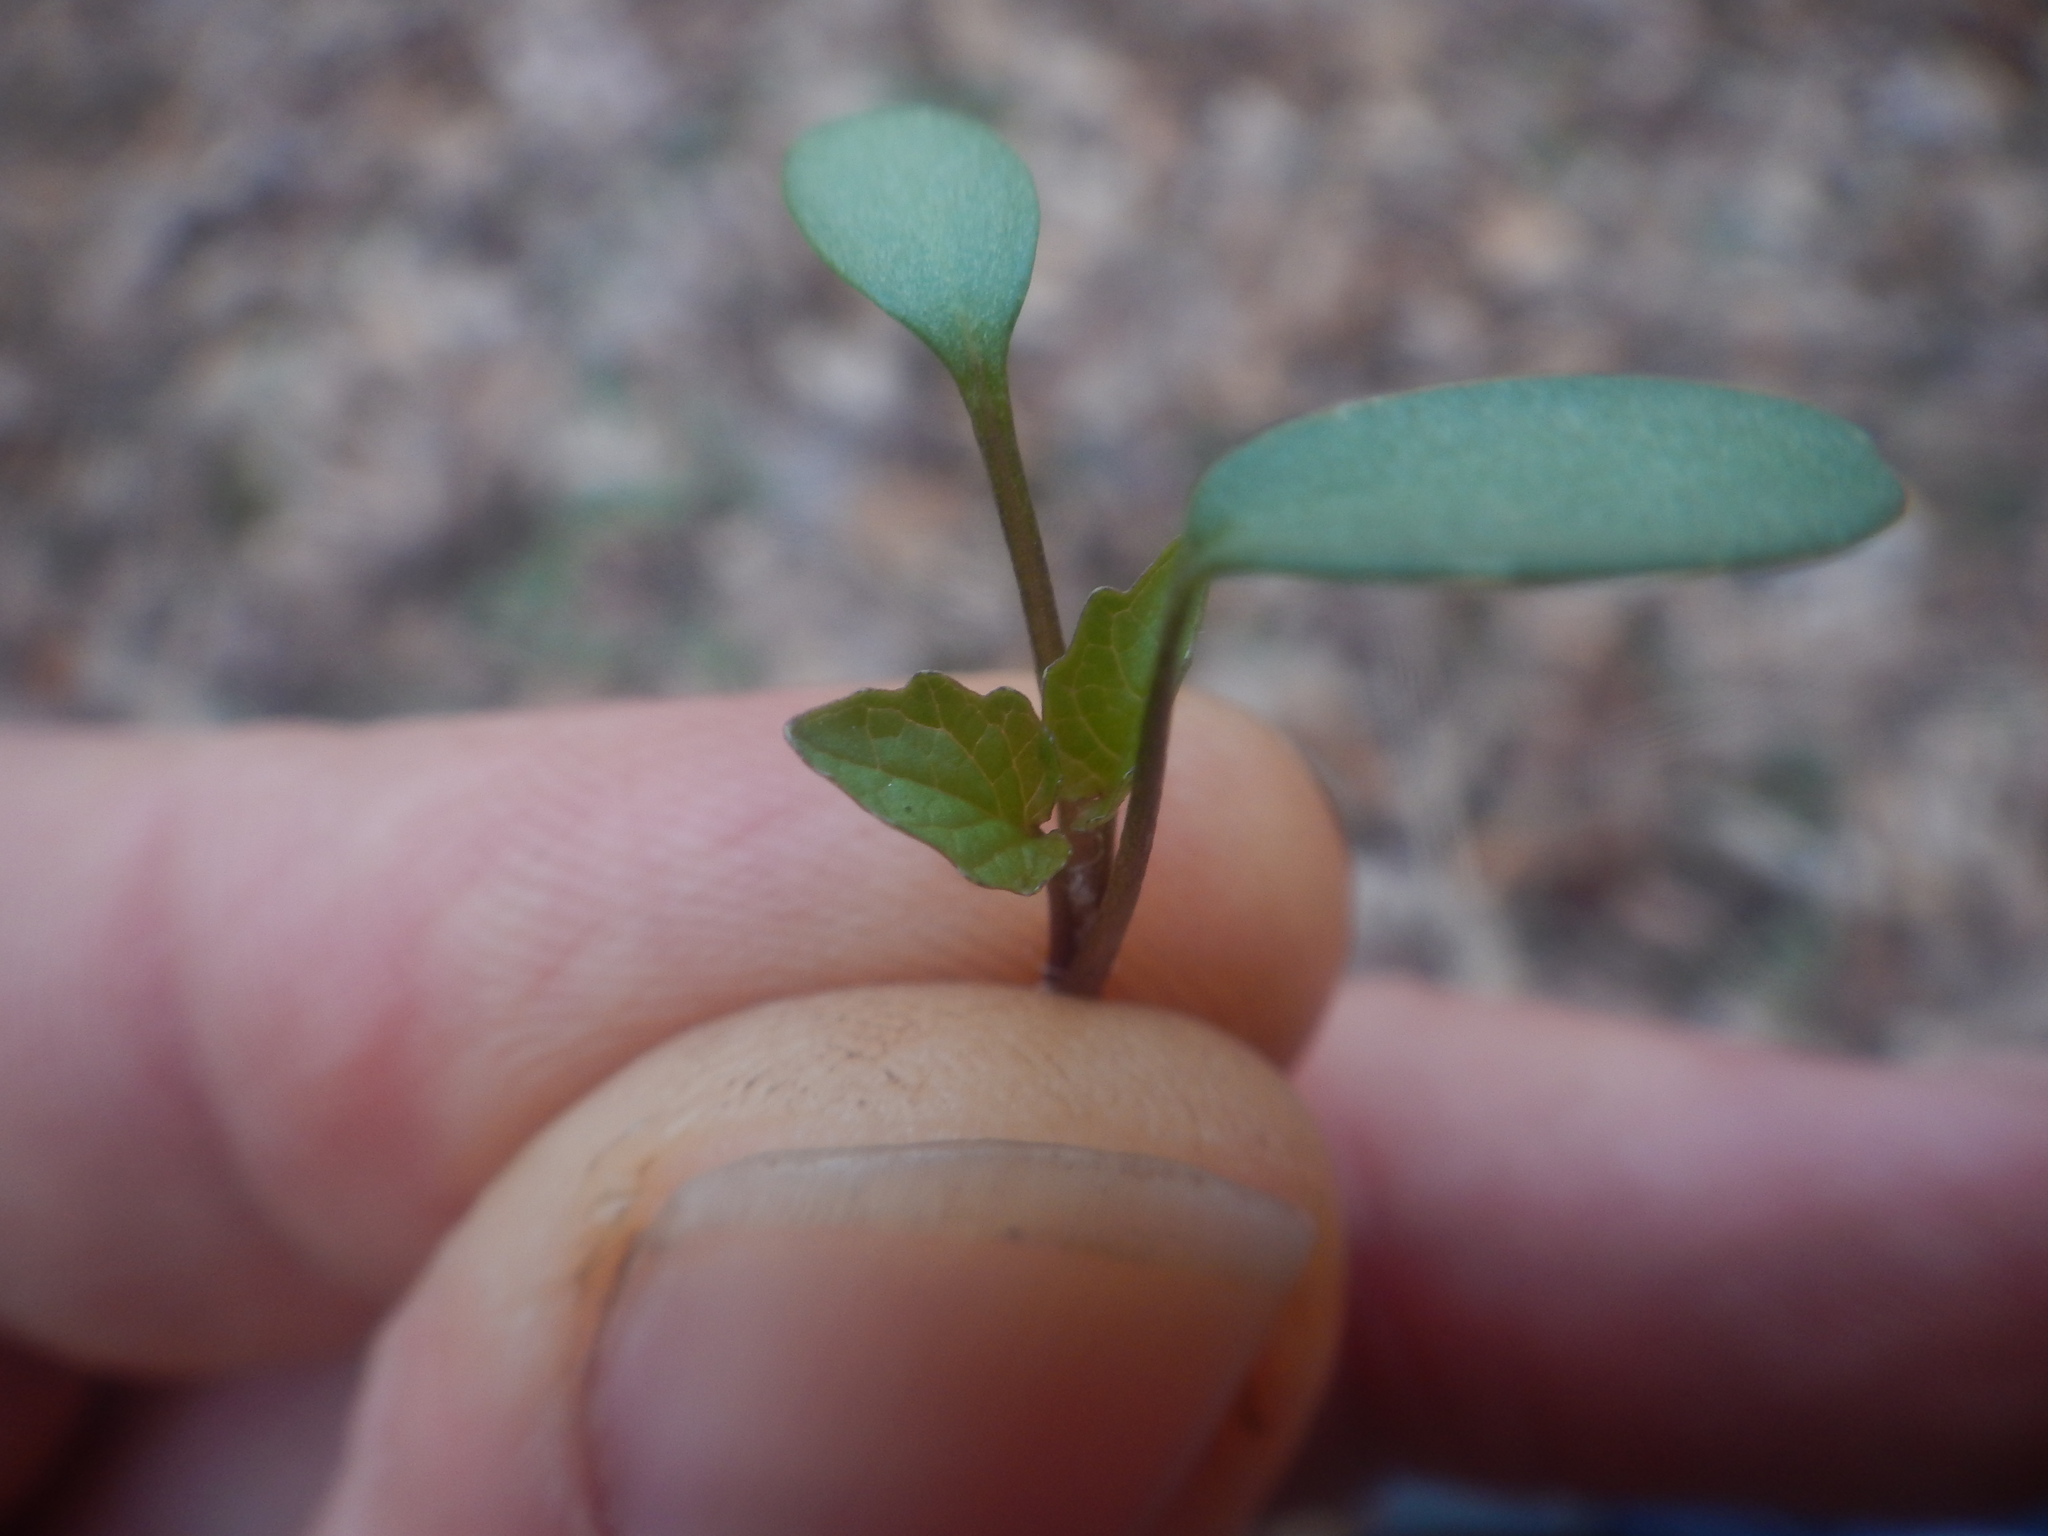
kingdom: Plantae
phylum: Tracheophyta
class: Magnoliopsida
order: Brassicales
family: Brassicaceae
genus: Alliaria
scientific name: Alliaria petiolata
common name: Garlic mustard
